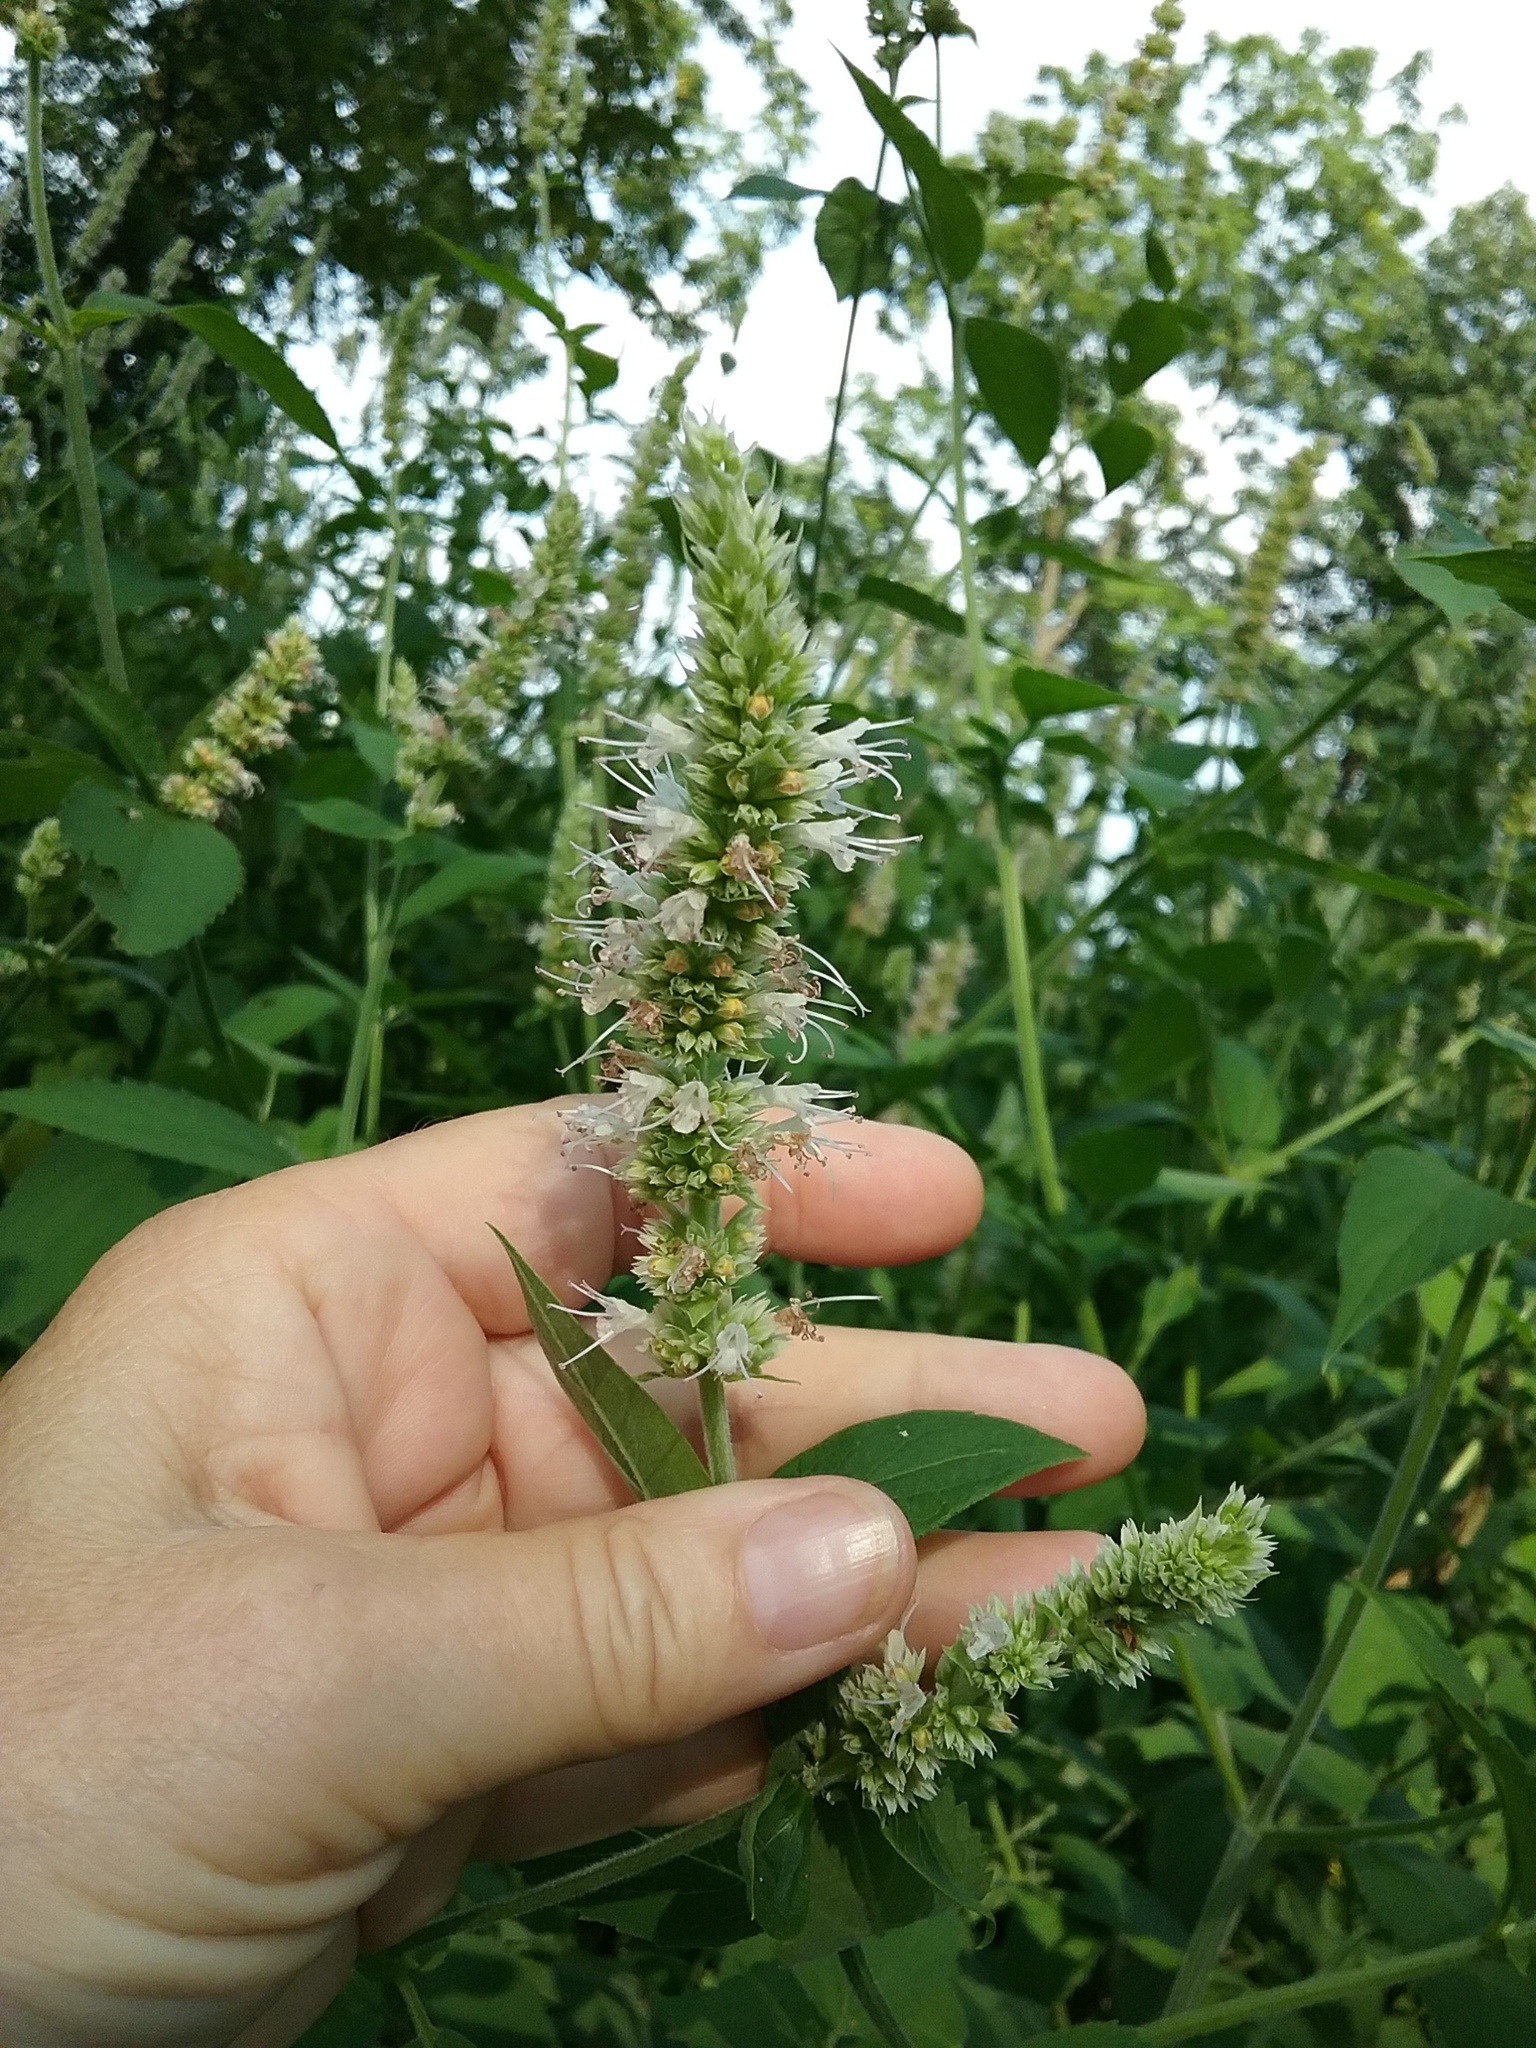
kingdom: Plantae
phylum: Tracheophyta
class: Magnoliopsida
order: Lamiales
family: Lamiaceae
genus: Agastache
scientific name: Agastache scrophulariifolia
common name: Figwort giant hyssop
